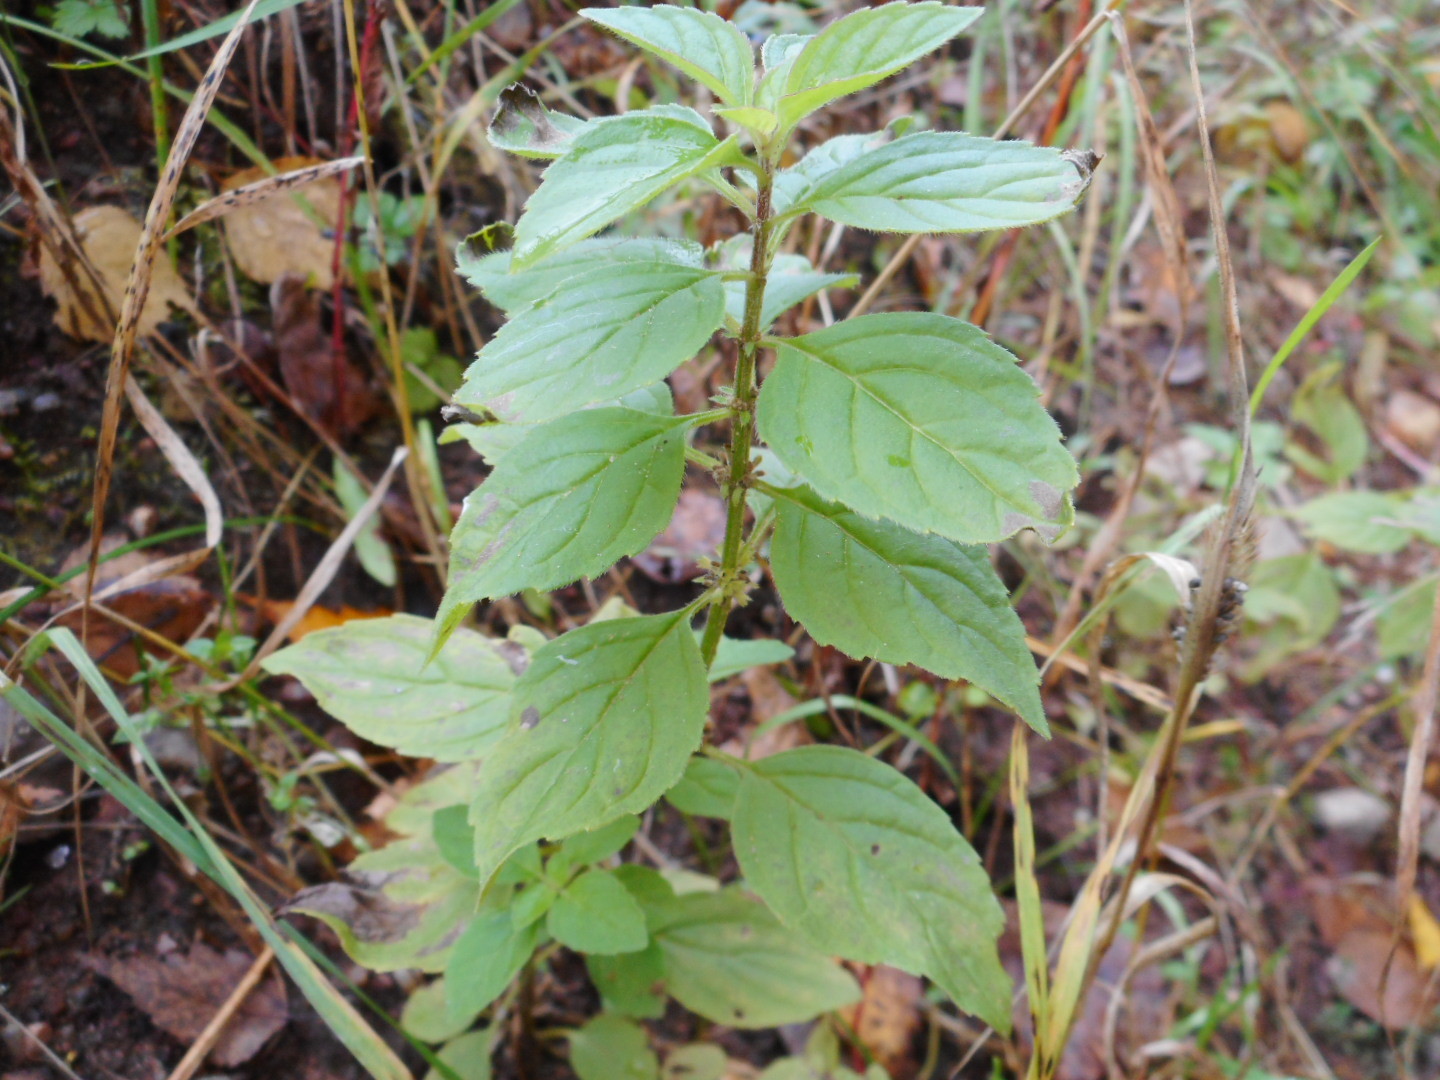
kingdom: Plantae
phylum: Tracheophyta
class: Magnoliopsida
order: Lamiales
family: Lamiaceae
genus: Mentha
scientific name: Mentha arvensis
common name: Corn mint
